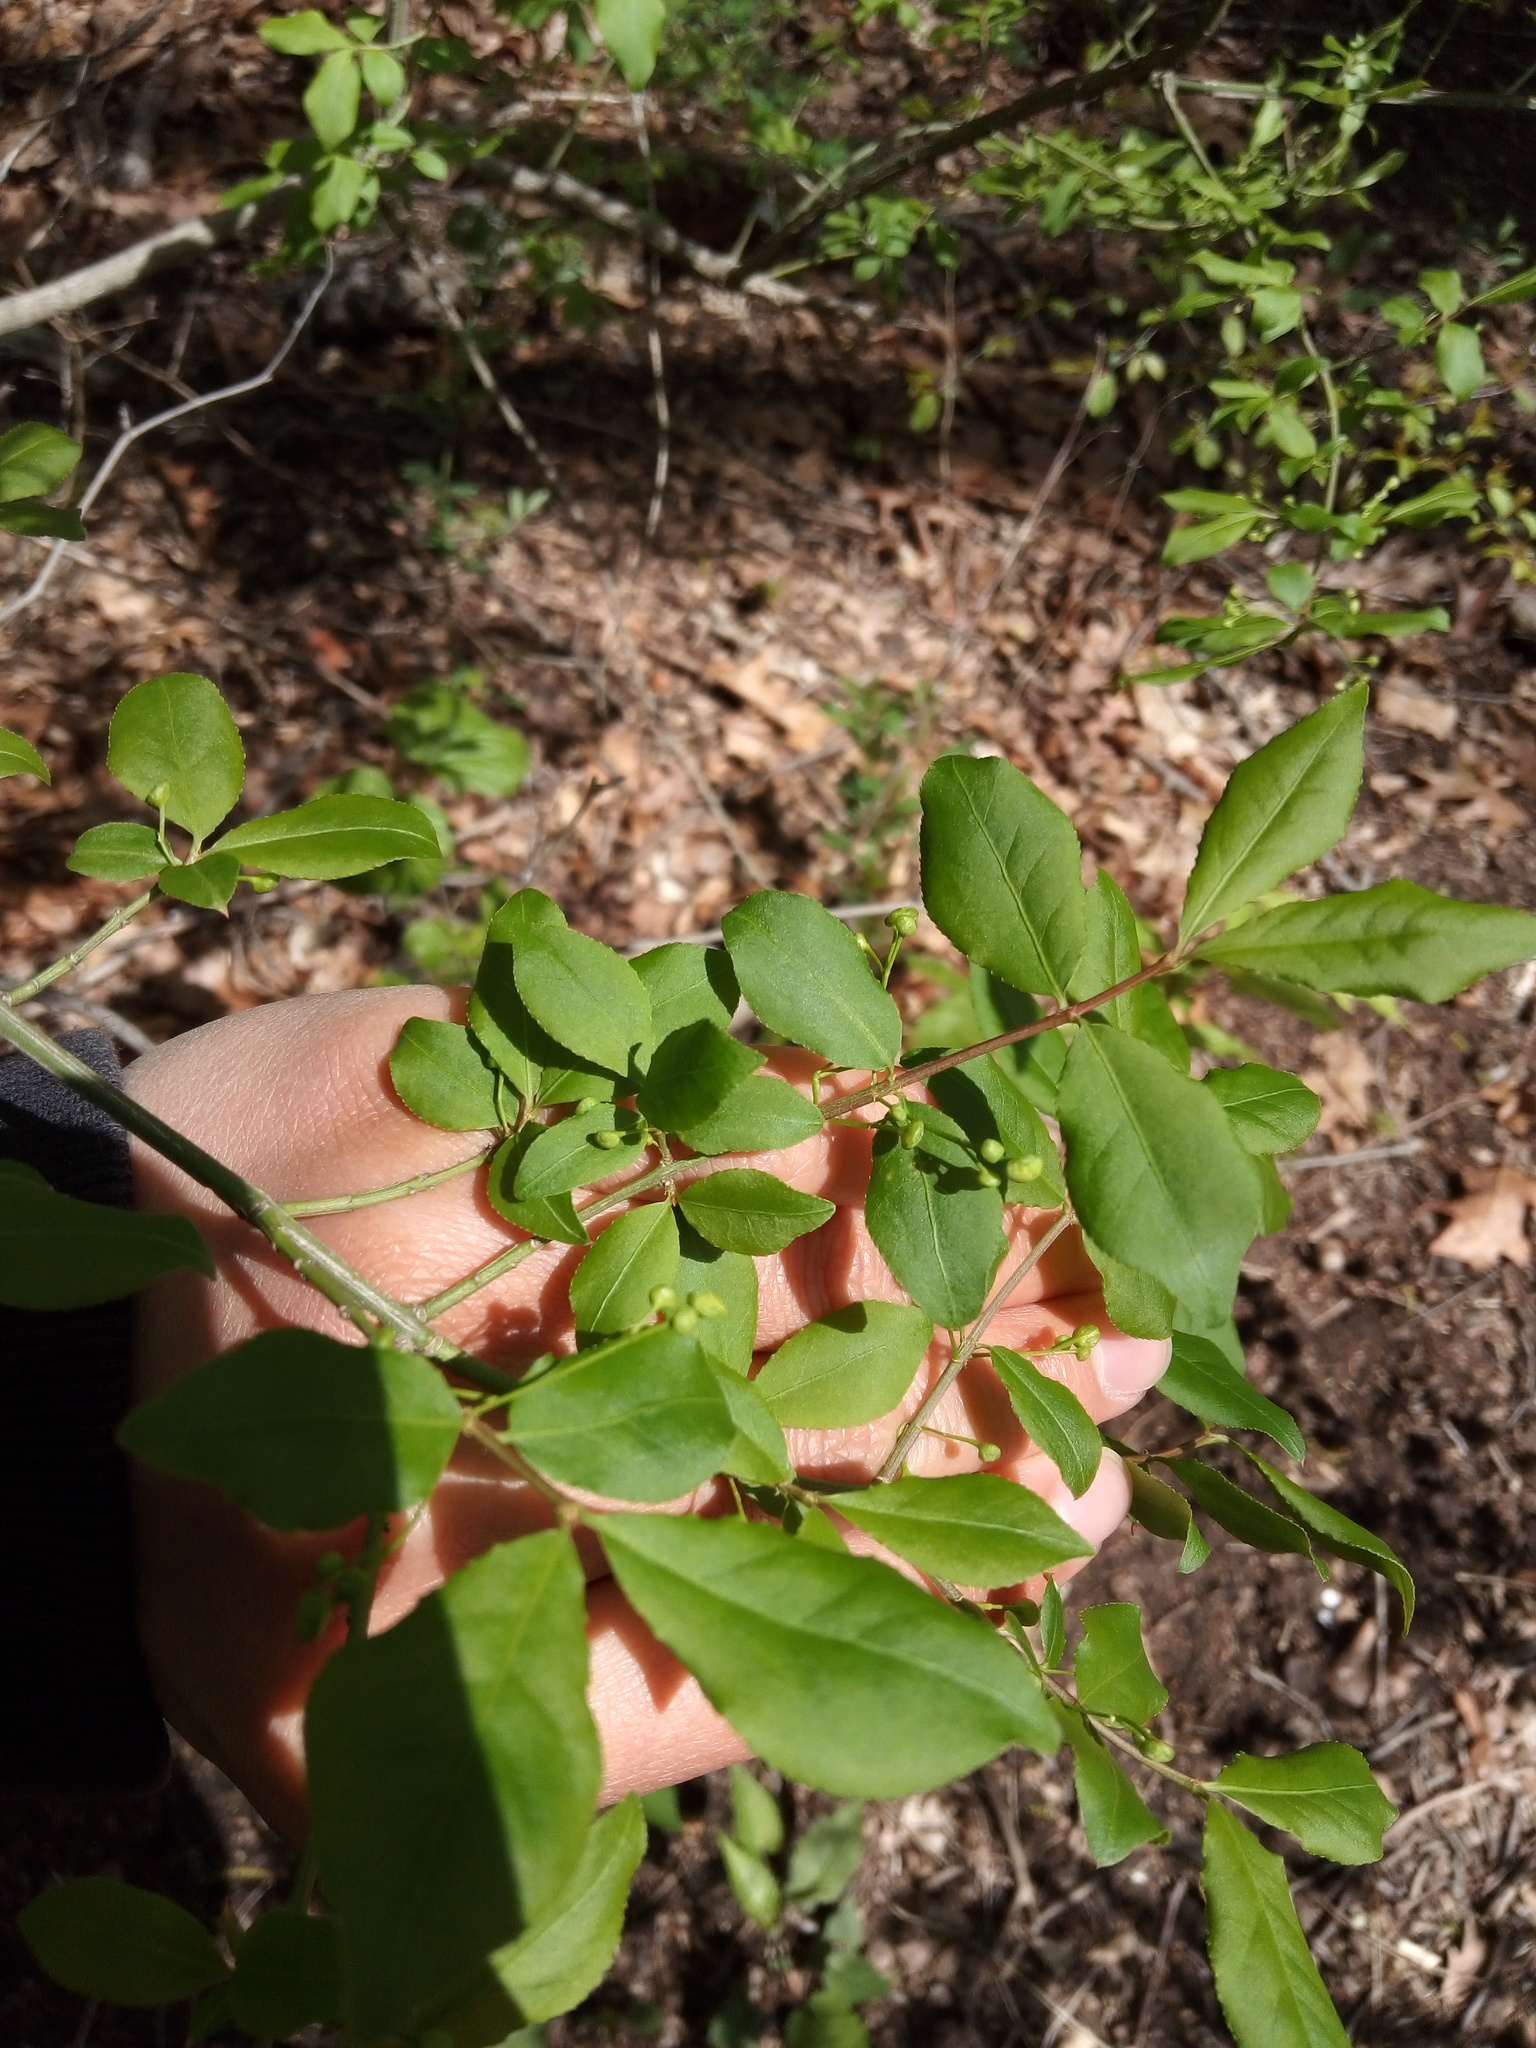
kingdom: Plantae
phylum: Tracheophyta
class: Magnoliopsida
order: Celastrales
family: Celastraceae
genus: Euonymus
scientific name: Euonymus alatus
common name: Winged euonymus
